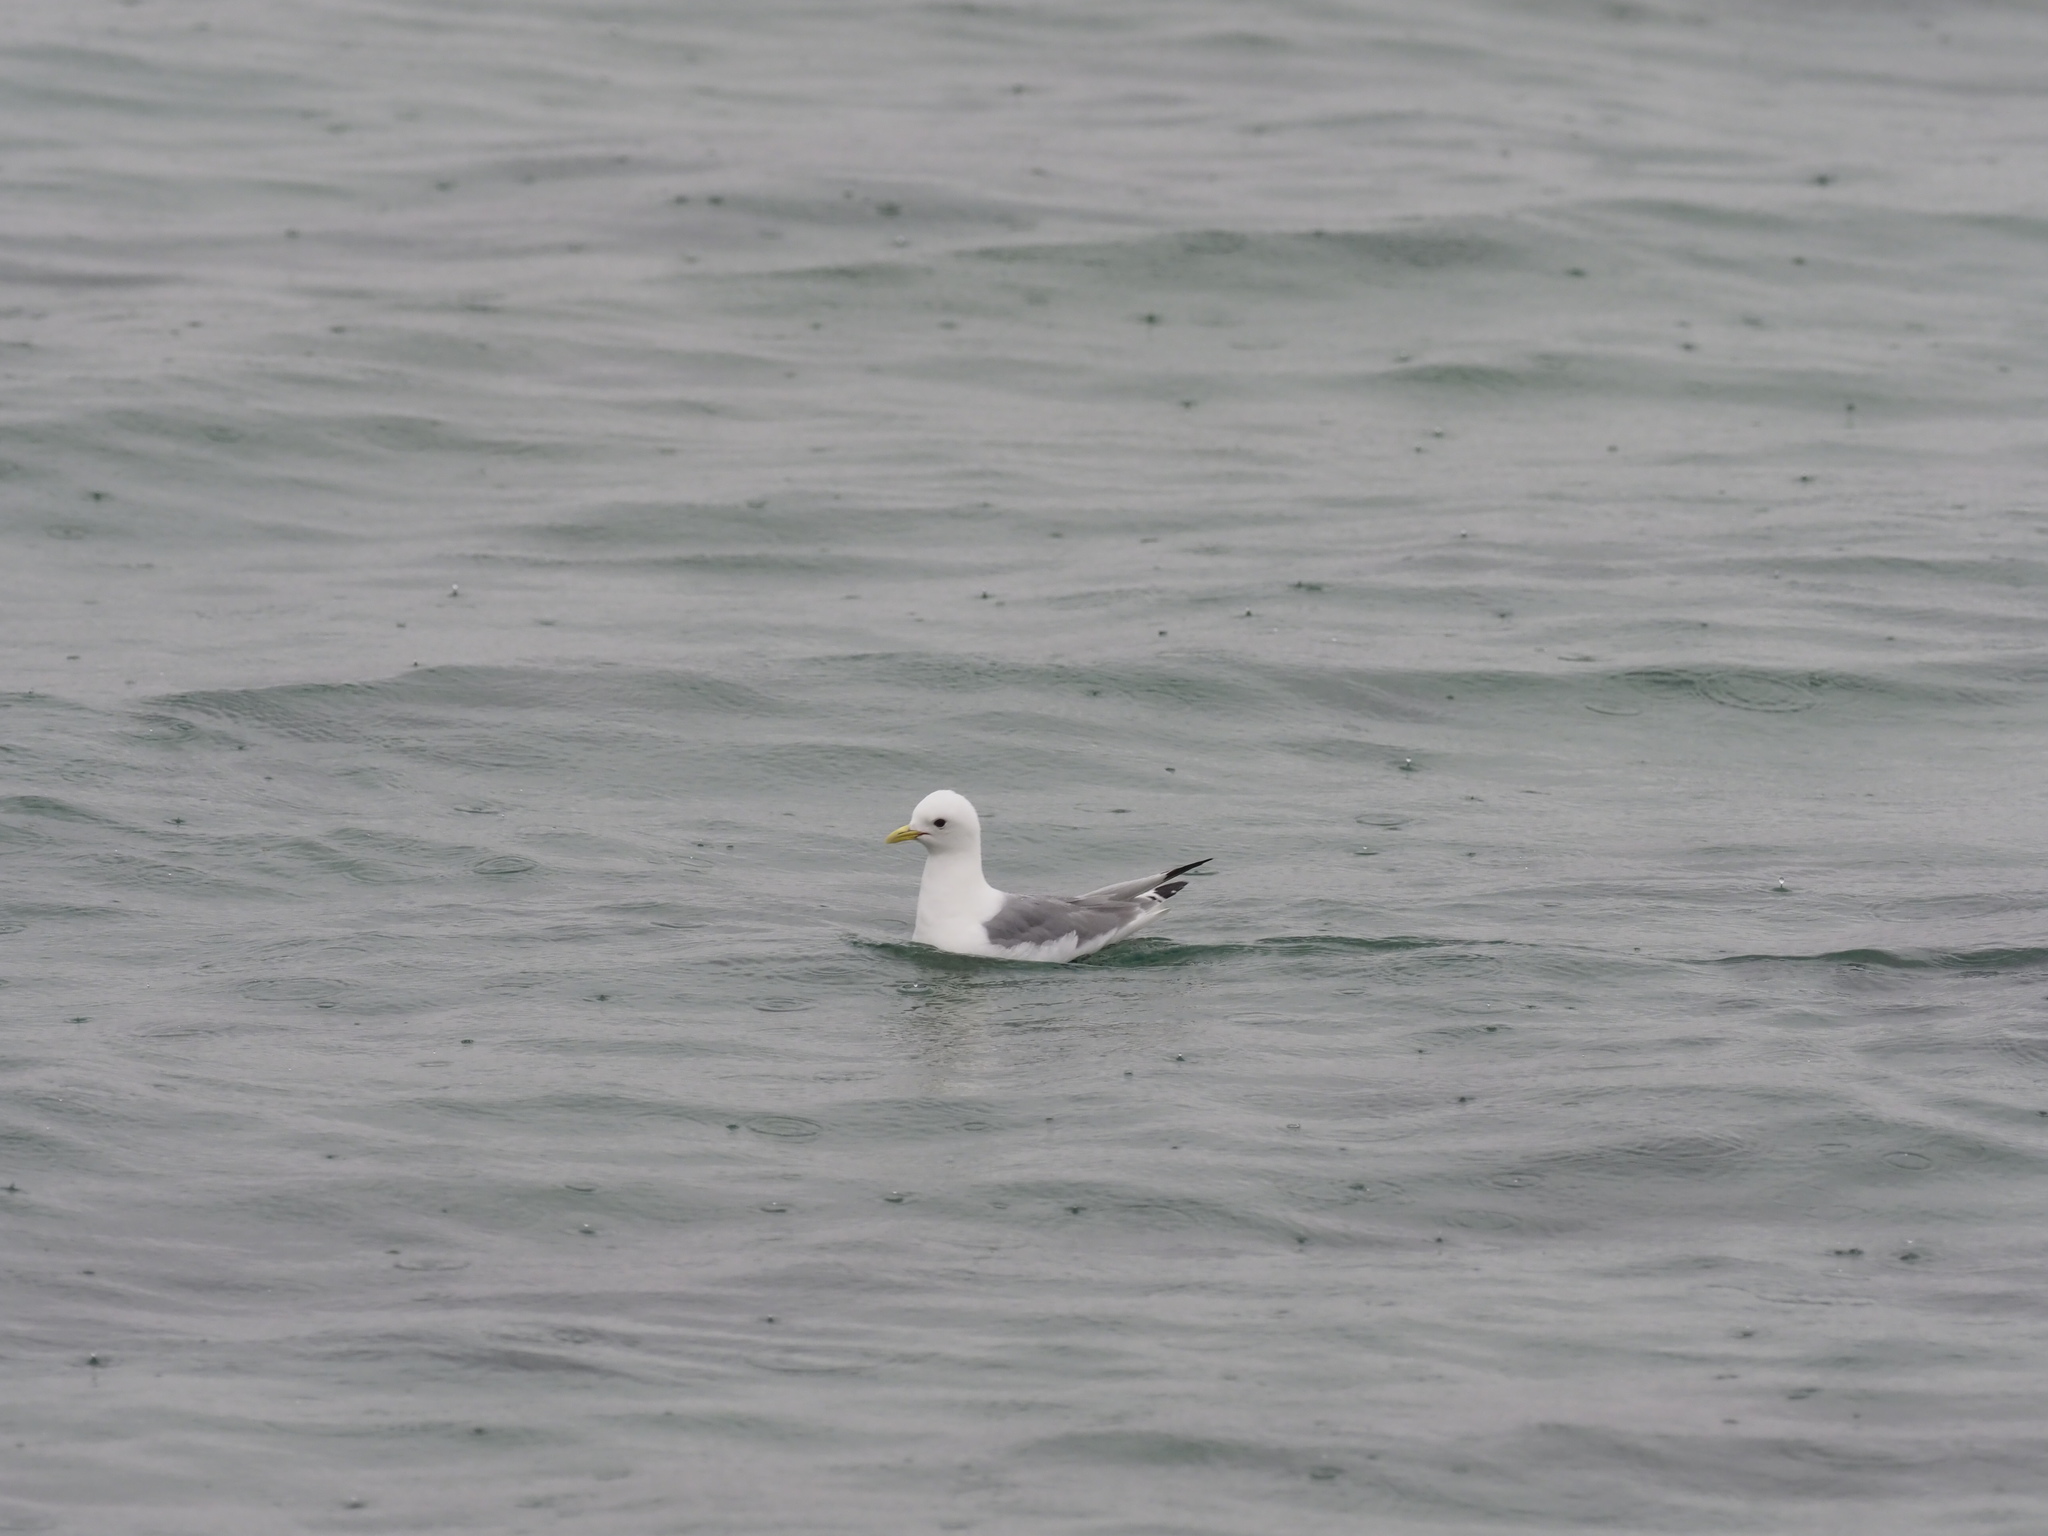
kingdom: Animalia
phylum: Chordata
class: Aves
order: Charadriiformes
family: Laridae
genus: Rissa
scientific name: Rissa tridactyla
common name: Black-legged kittiwake
